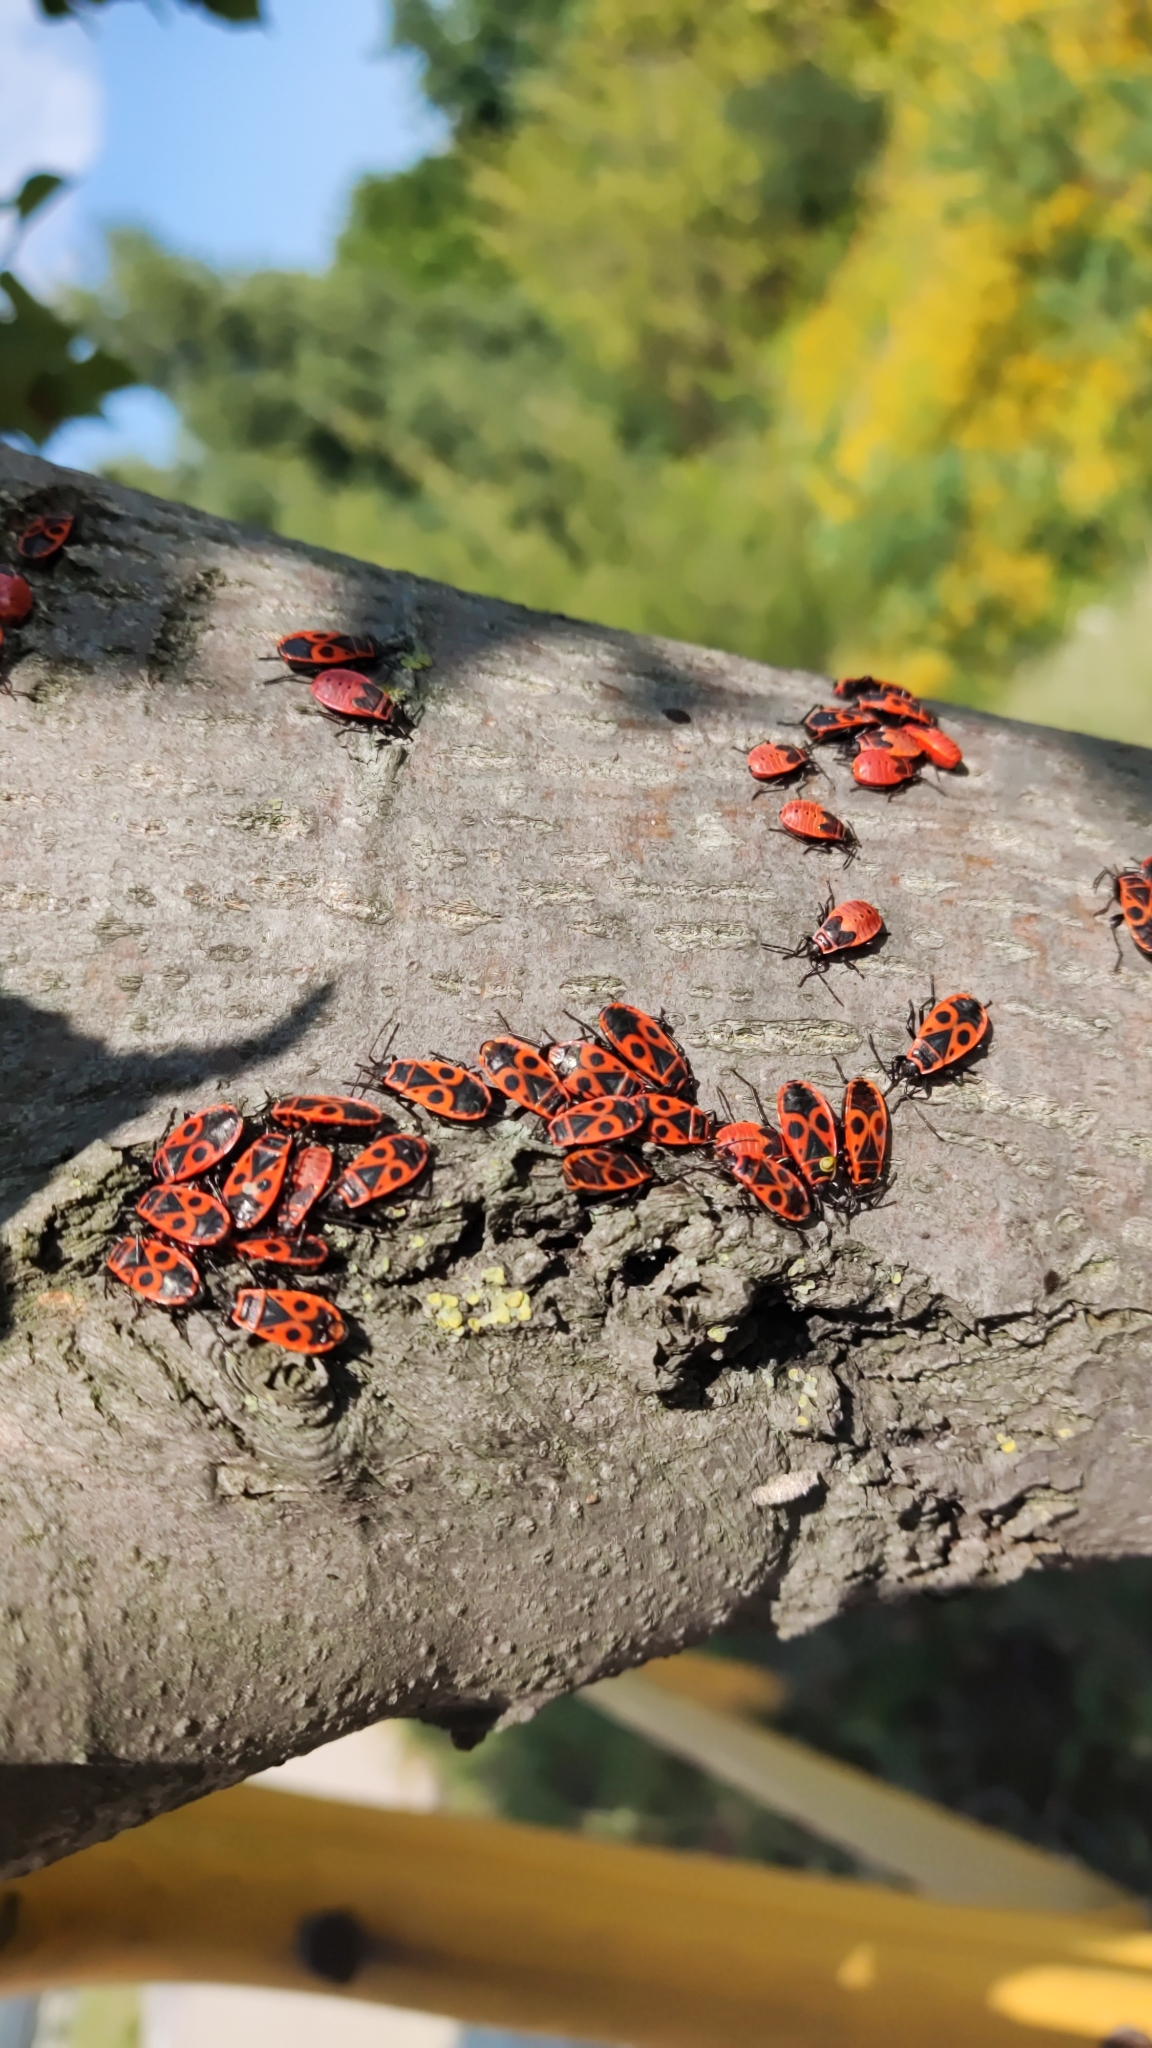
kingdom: Animalia
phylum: Arthropoda
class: Insecta
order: Hemiptera
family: Pyrrhocoridae
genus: Pyrrhocoris
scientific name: Pyrrhocoris apterus
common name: Firebug
